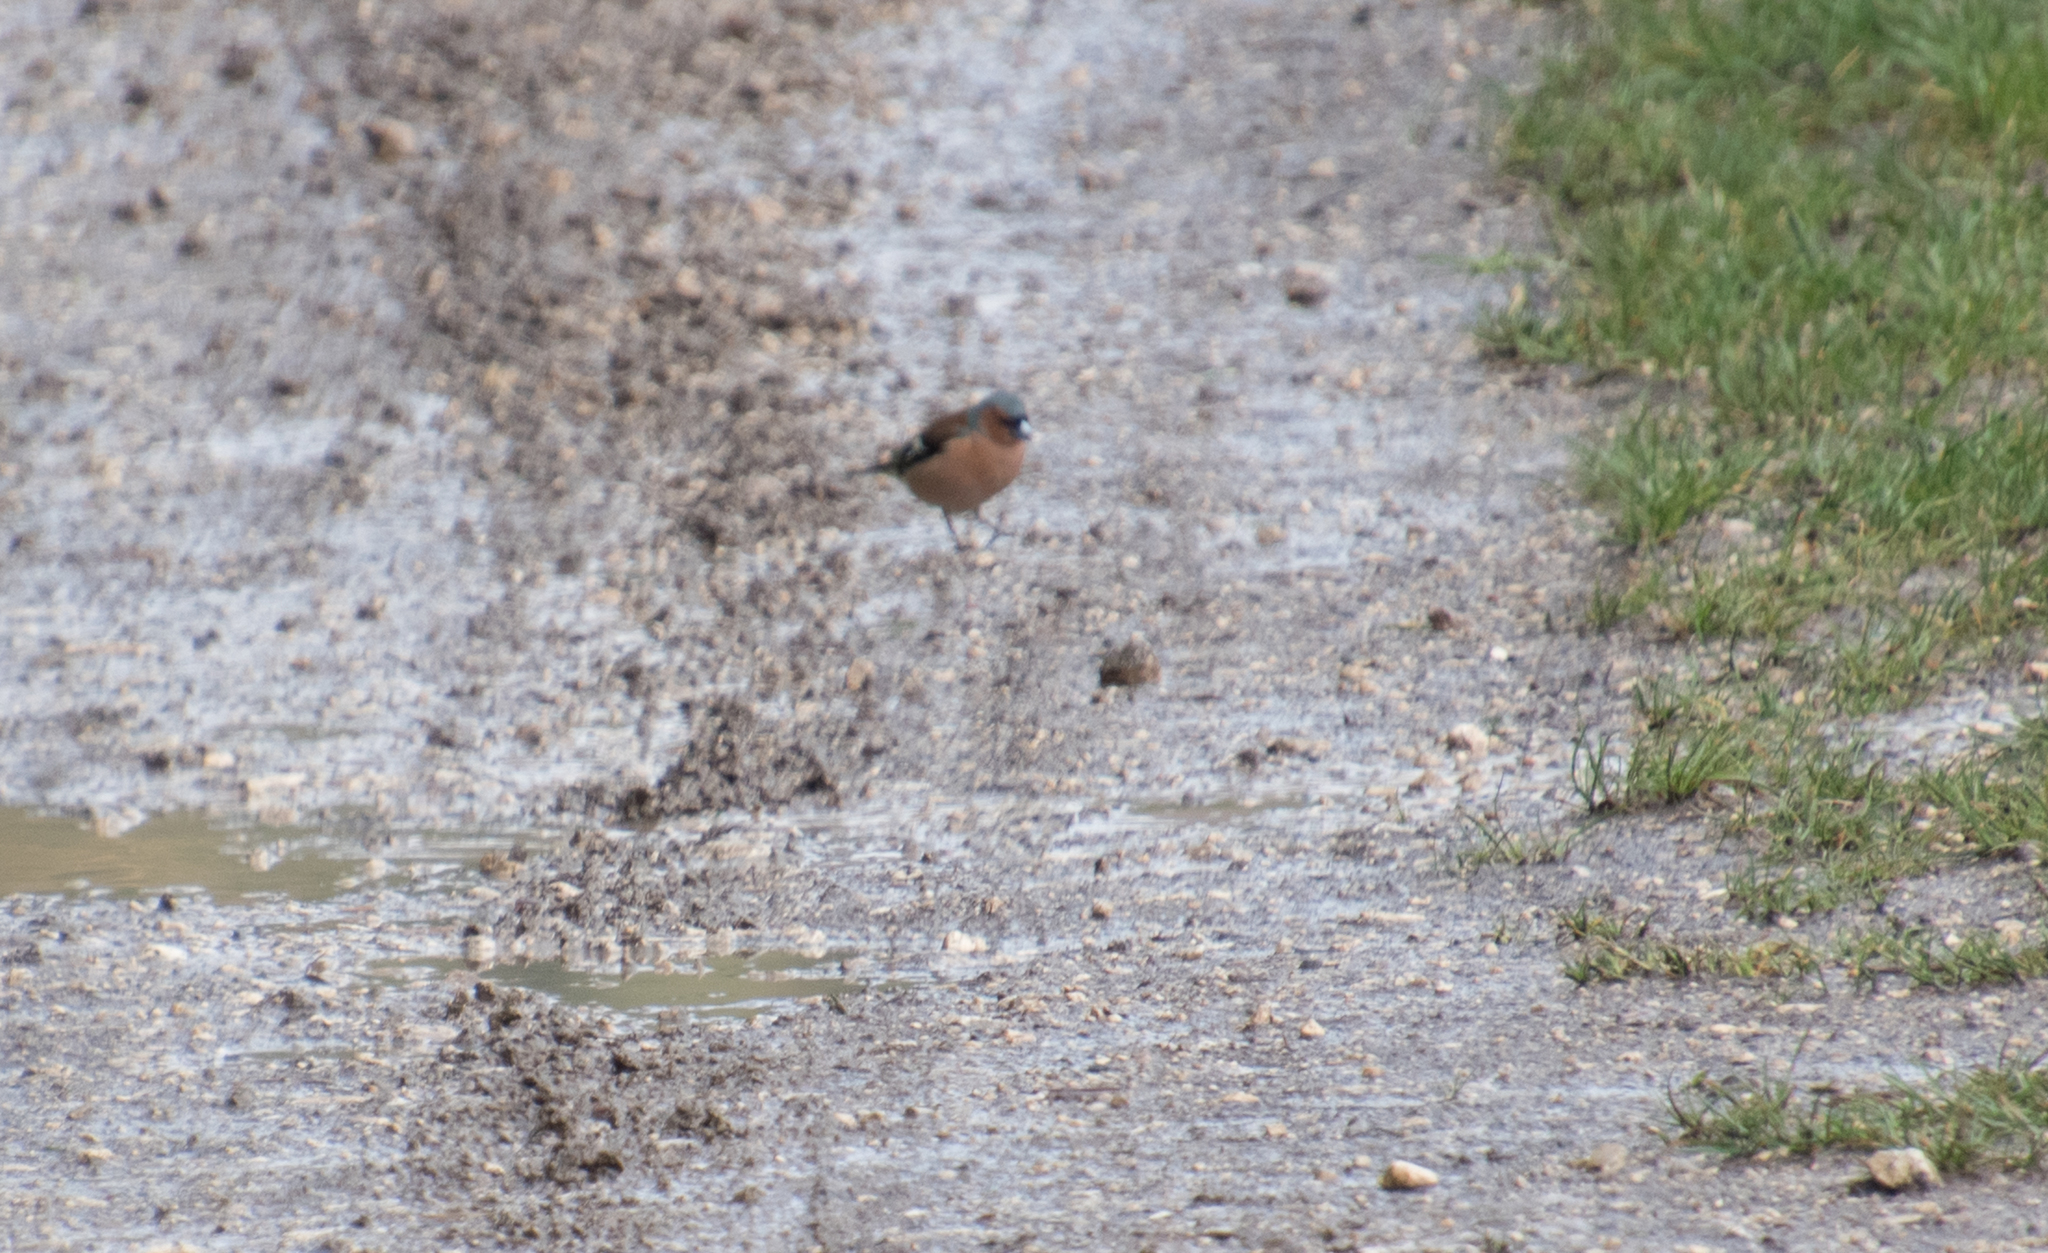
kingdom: Animalia
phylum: Chordata
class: Aves
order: Passeriformes
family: Fringillidae
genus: Fringilla
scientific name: Fringilla coelebs
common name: Common chaffinch
